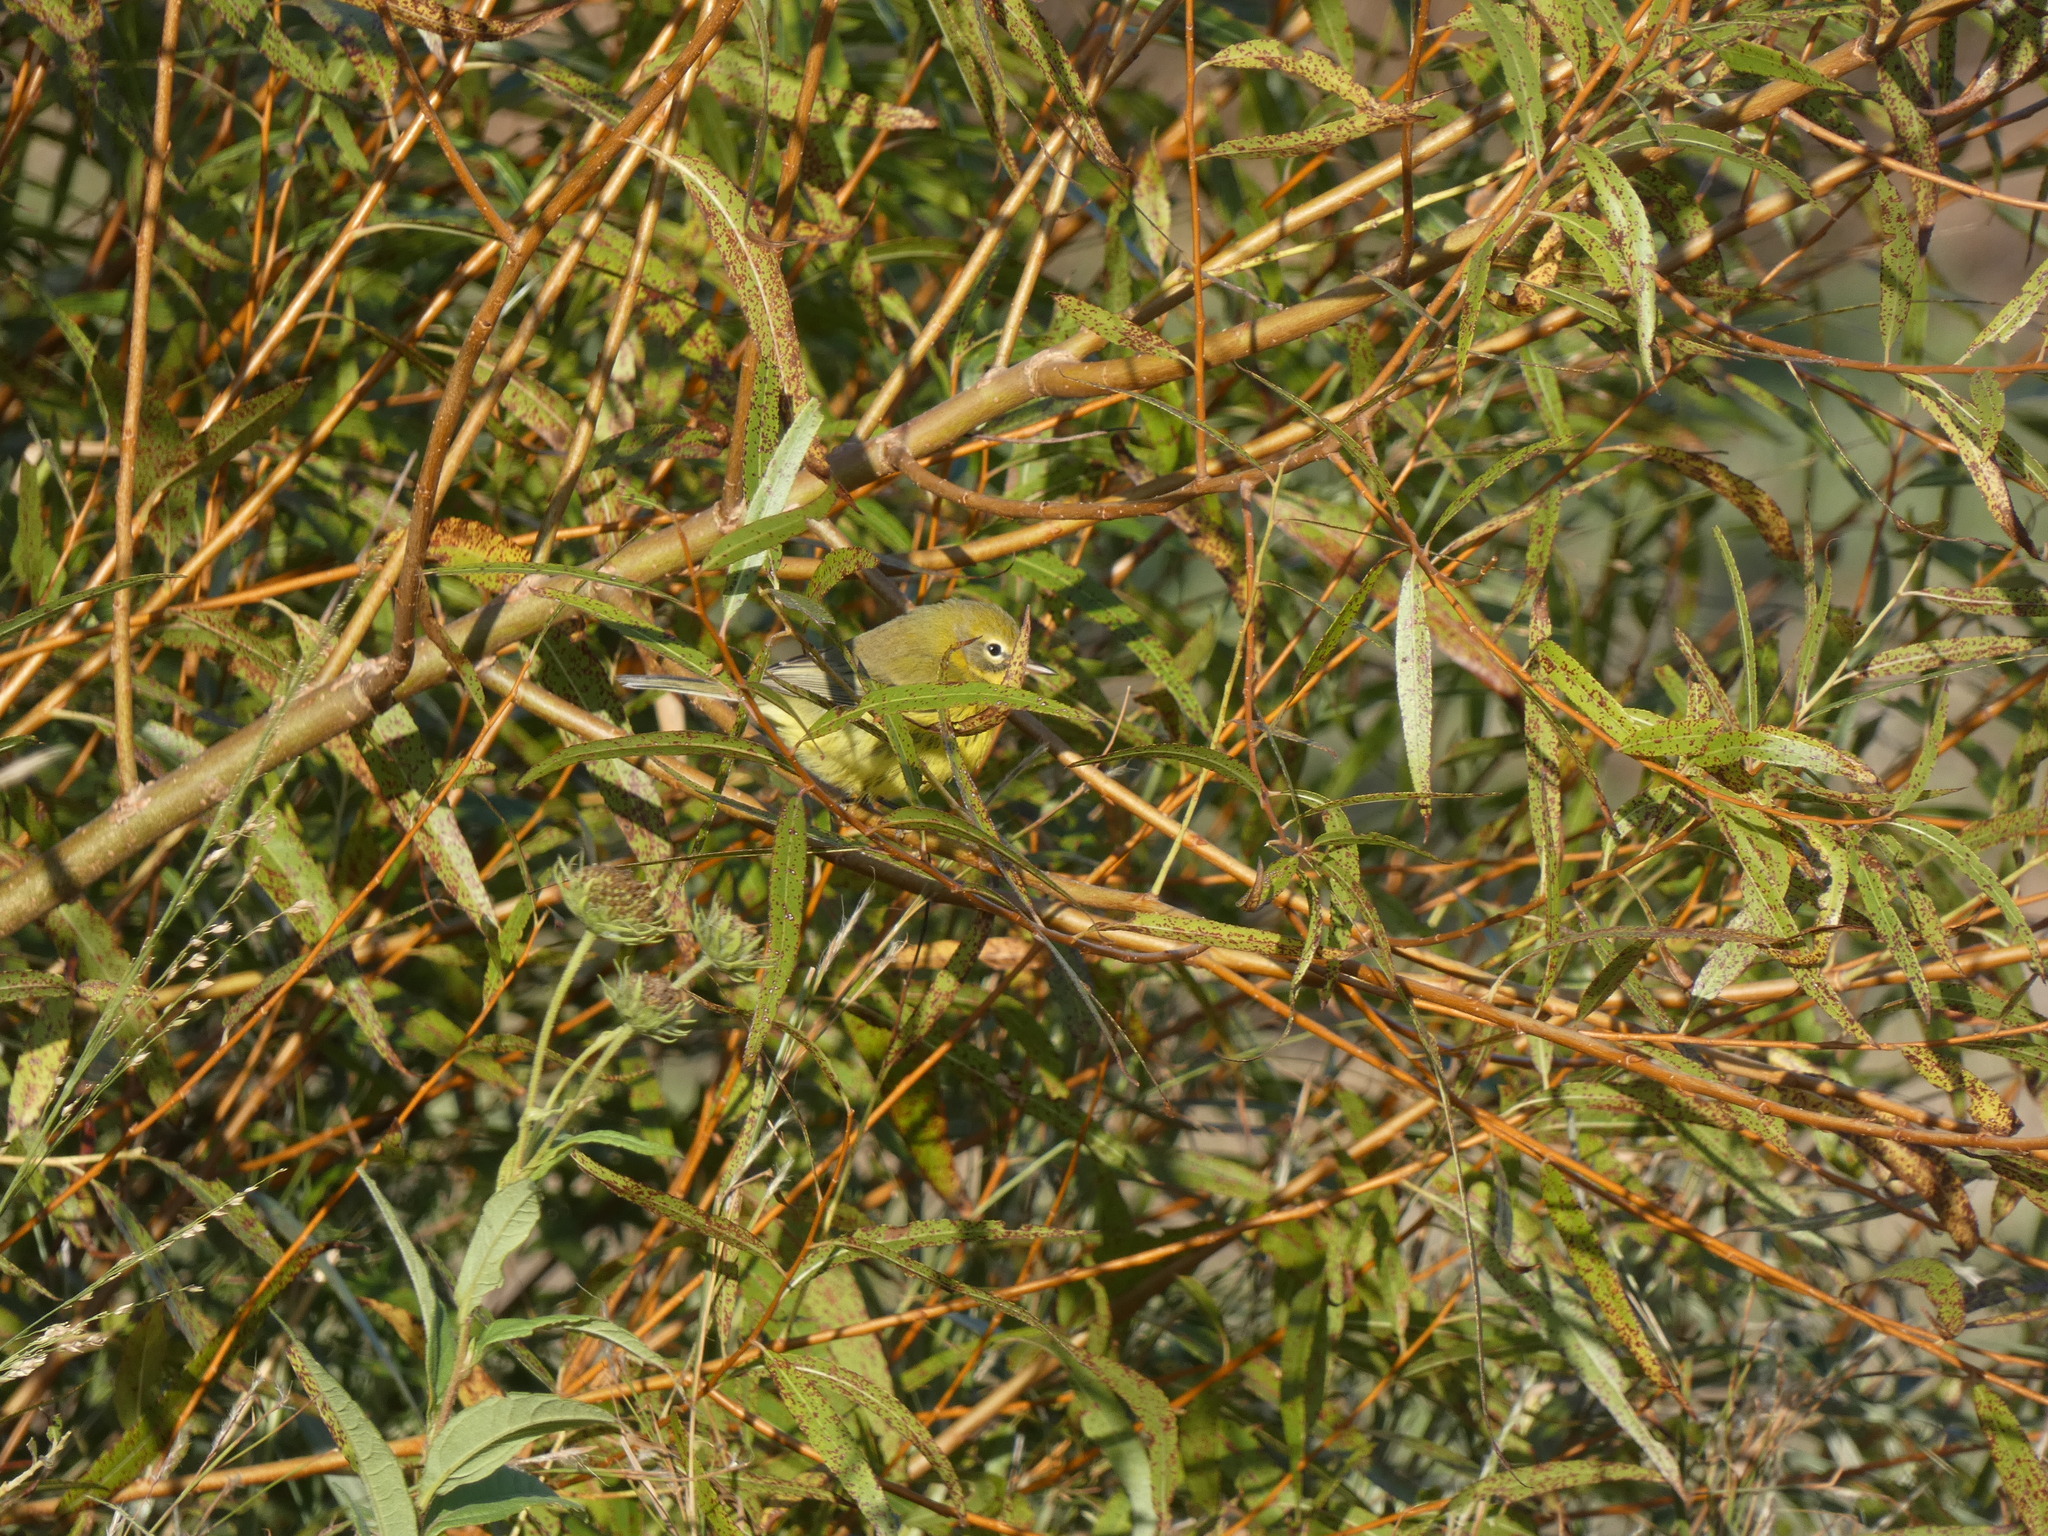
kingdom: Animalia
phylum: Chordata
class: Aves
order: Passeriformes
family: Parulidae
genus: Setophaga
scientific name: Setophaga discolor
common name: Prairie warbler
